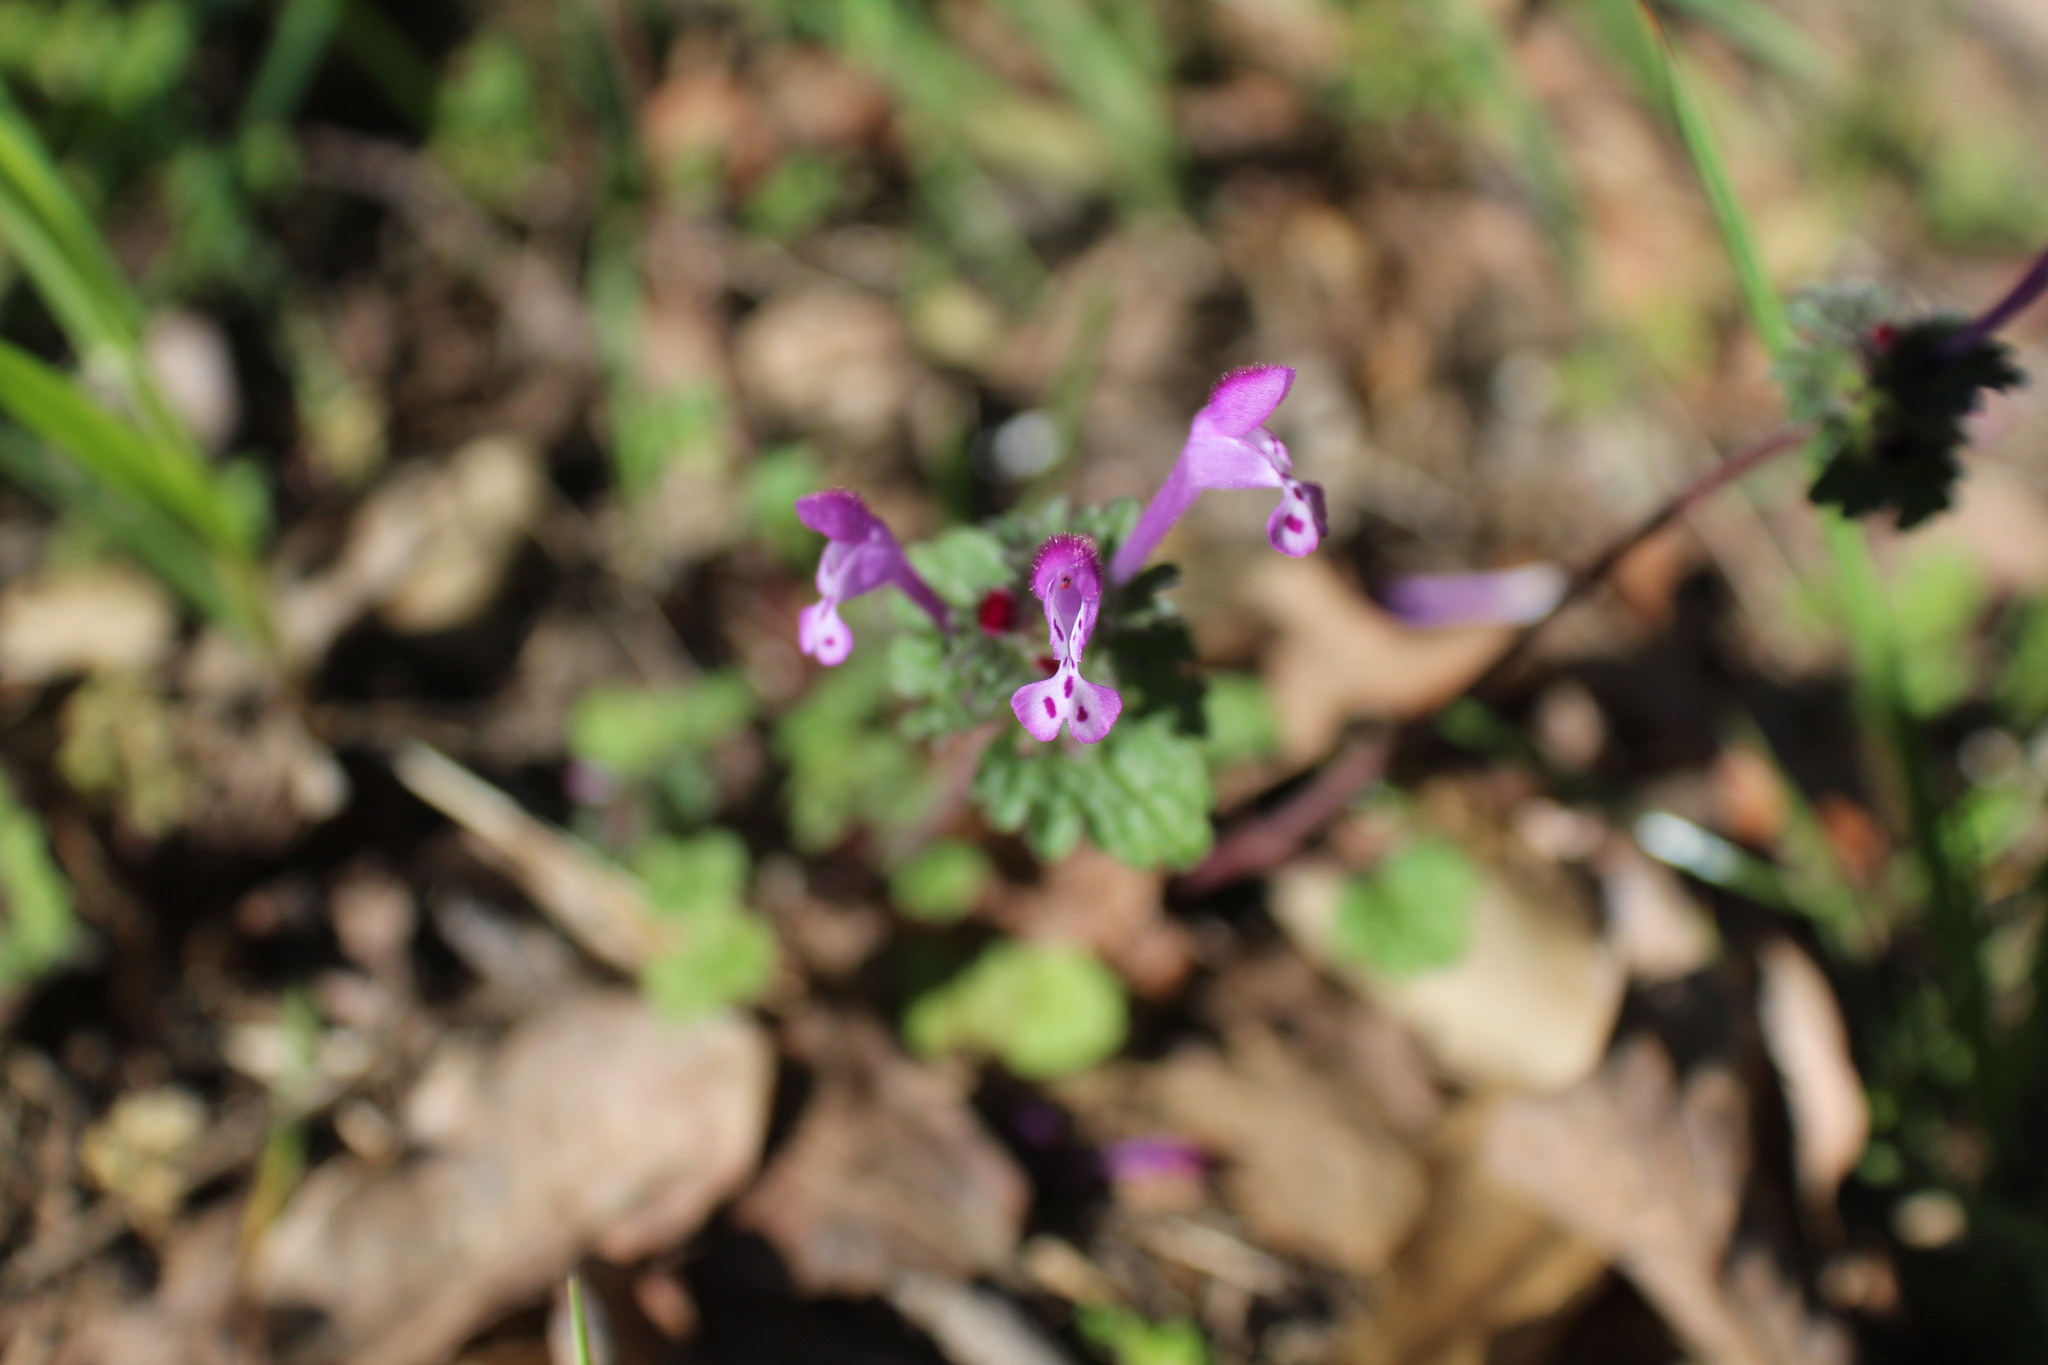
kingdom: Plantae
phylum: Tracheophyta
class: Magnoliopsida
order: Lamiales
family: Lamiaceae
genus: Lamium
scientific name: Lamium amplexicaule
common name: Henbit dead-nettle
